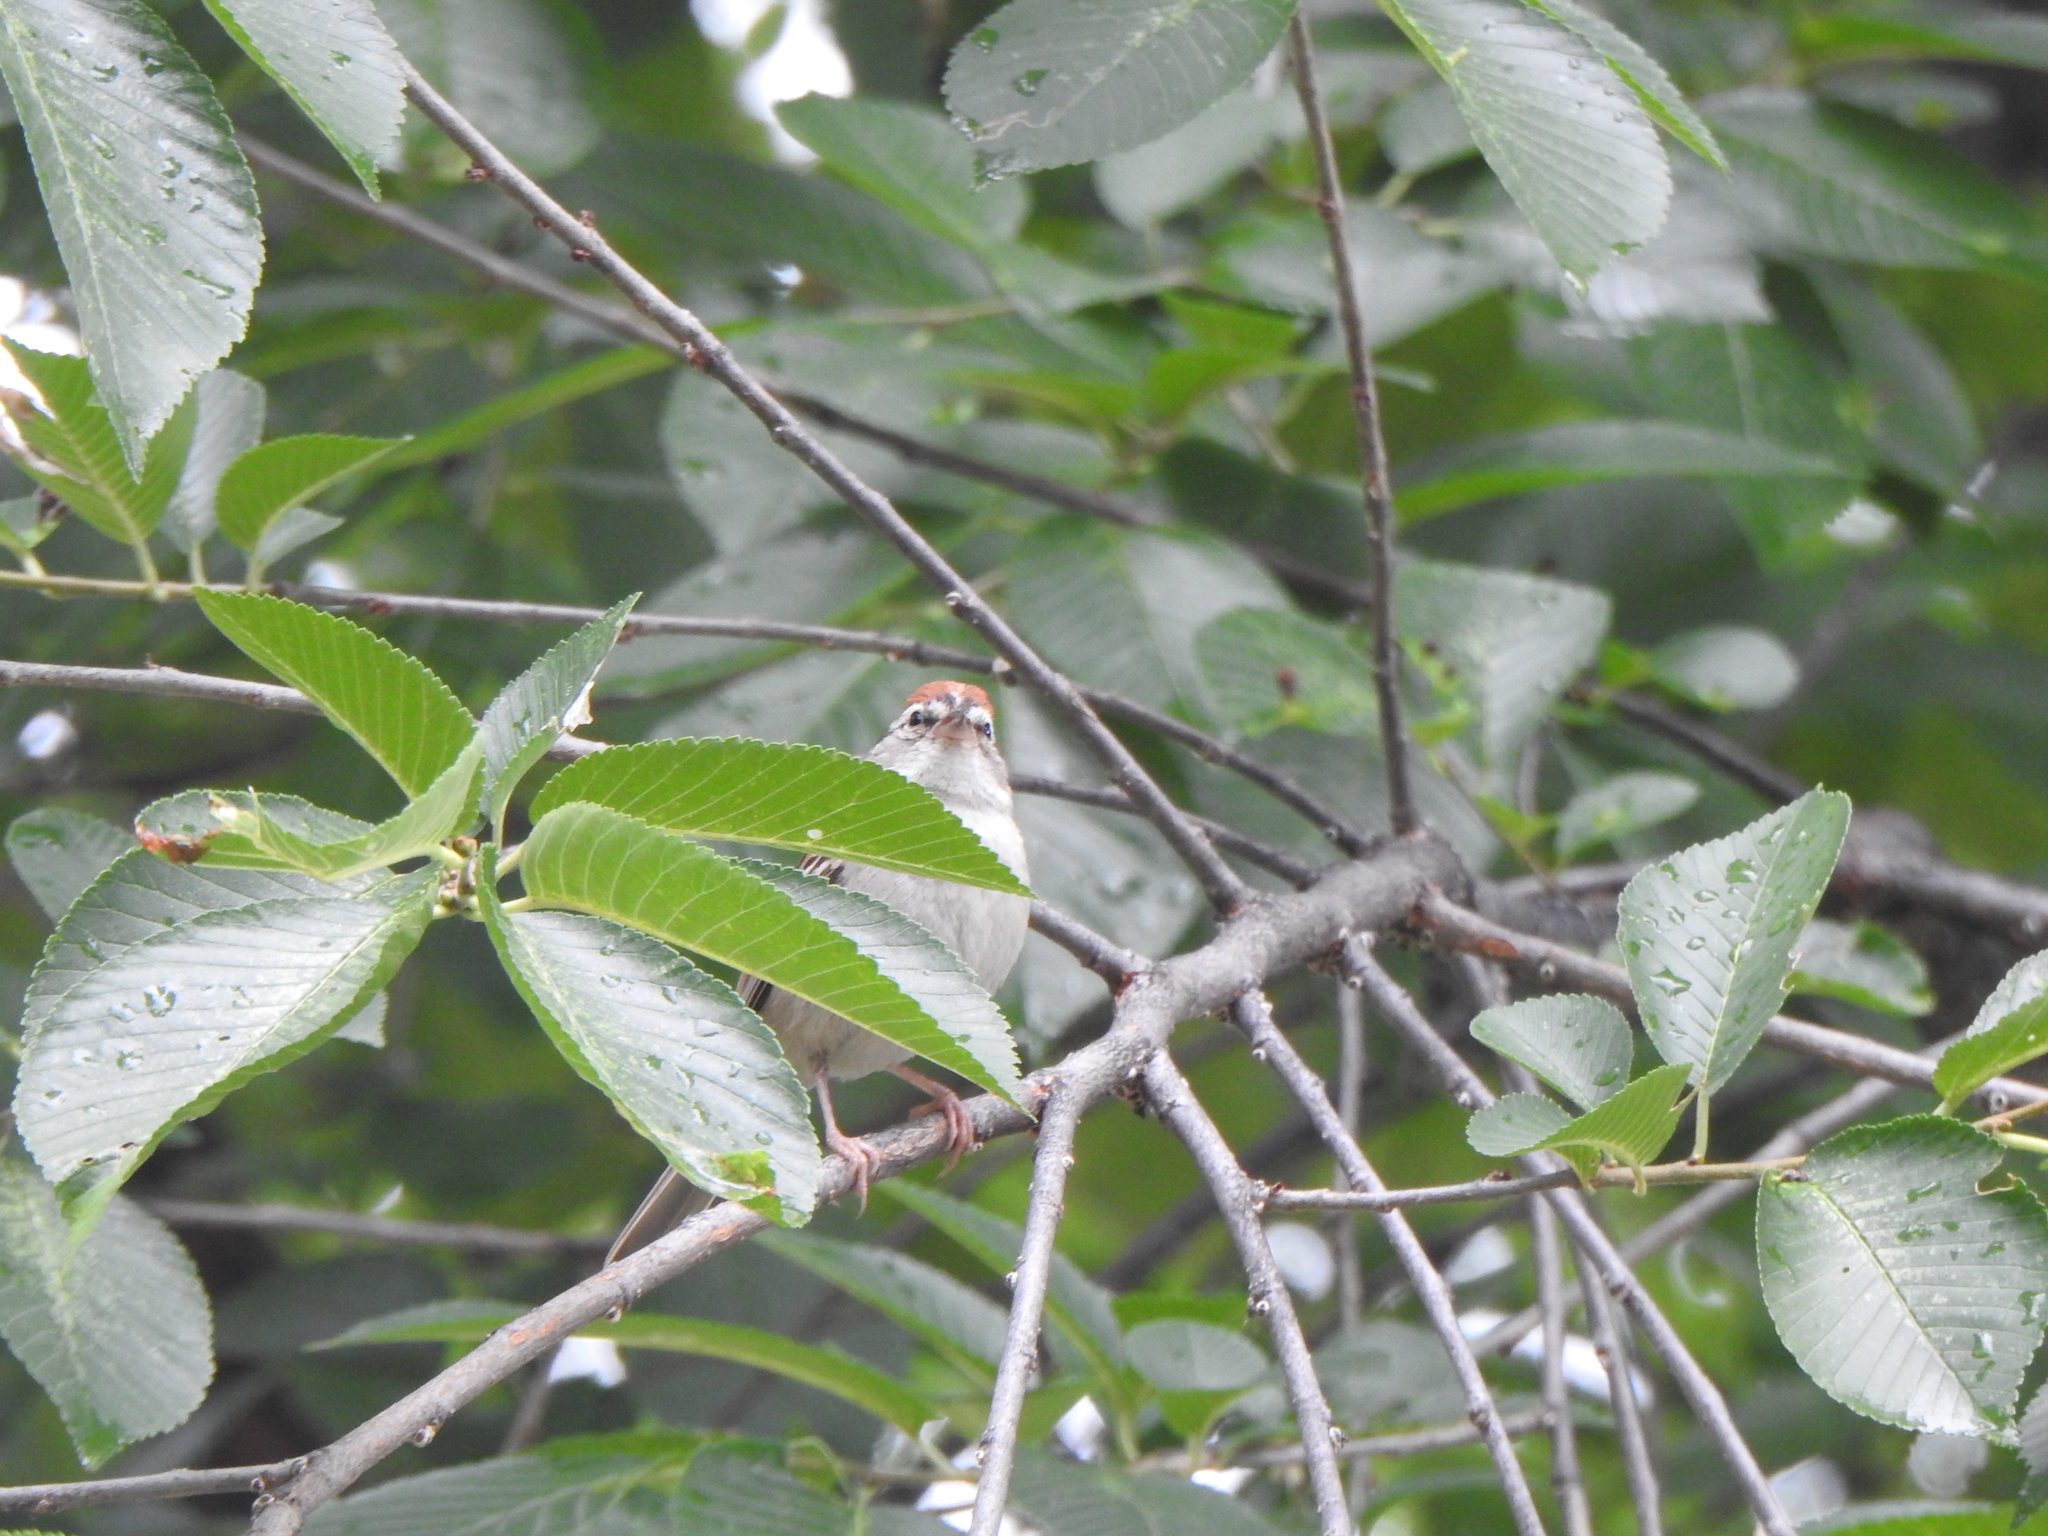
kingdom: Animalia
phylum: Chordata
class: Aves
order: Passeriformes
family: Passerellidae
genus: Spizella
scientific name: Spizella passerina
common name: Chipping sparrow
